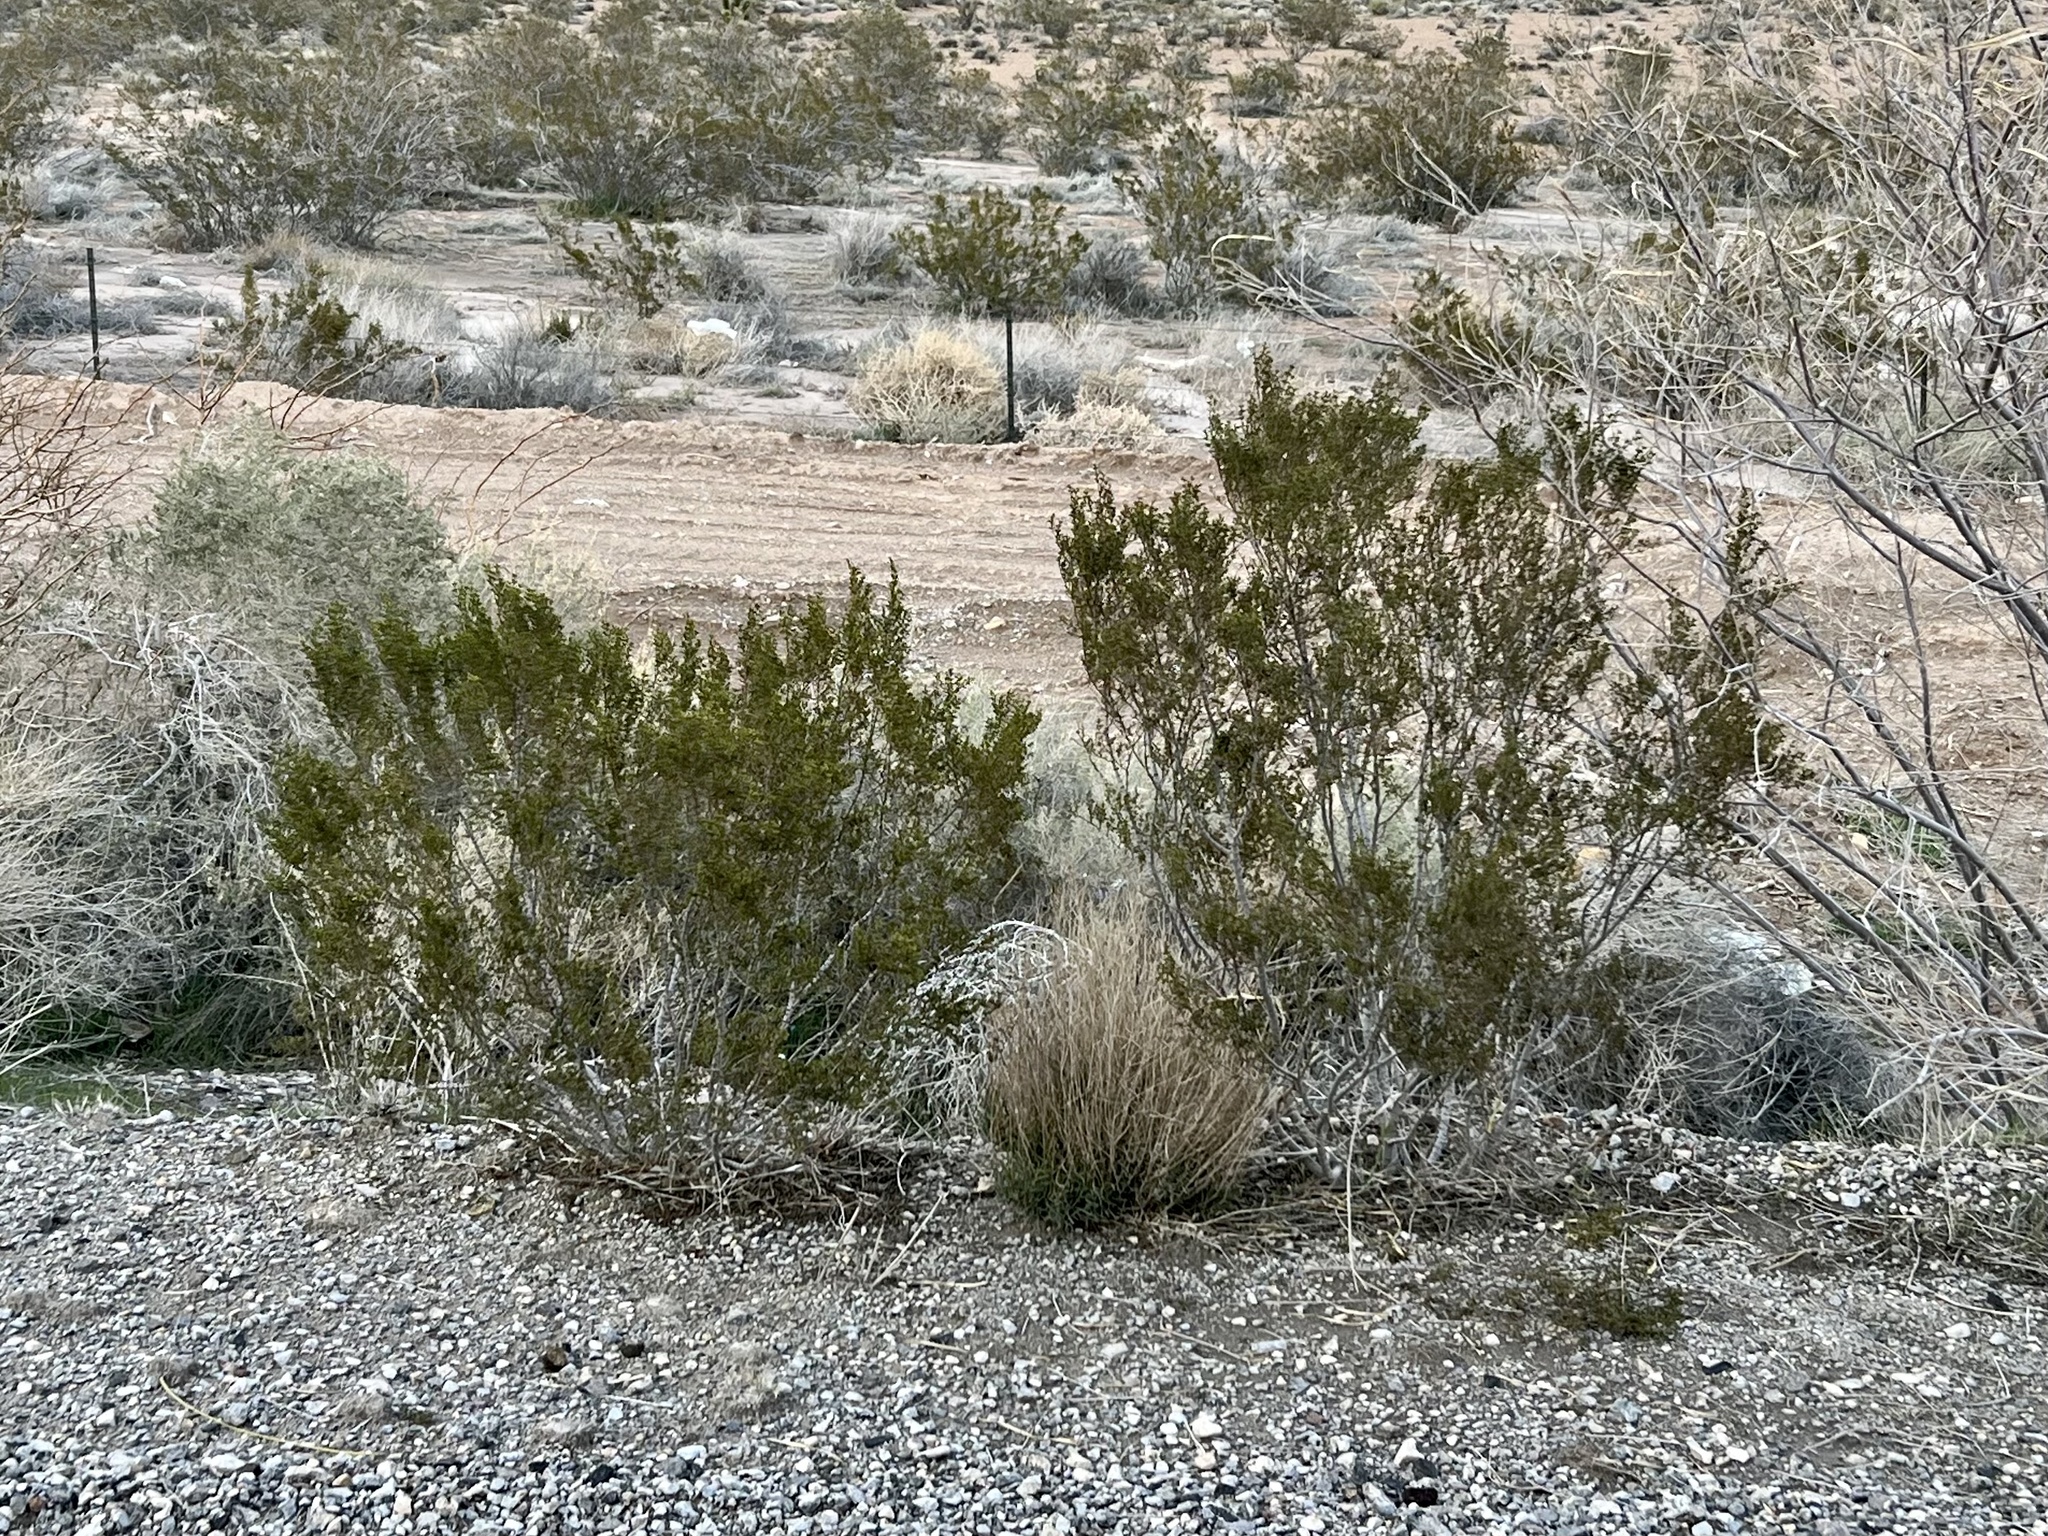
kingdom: Plantae
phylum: Tracheophyta
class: Magnoliopsida
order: Zygophyllales
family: Zygophyllaceae
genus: Larrea
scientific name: Larrea tridentata
